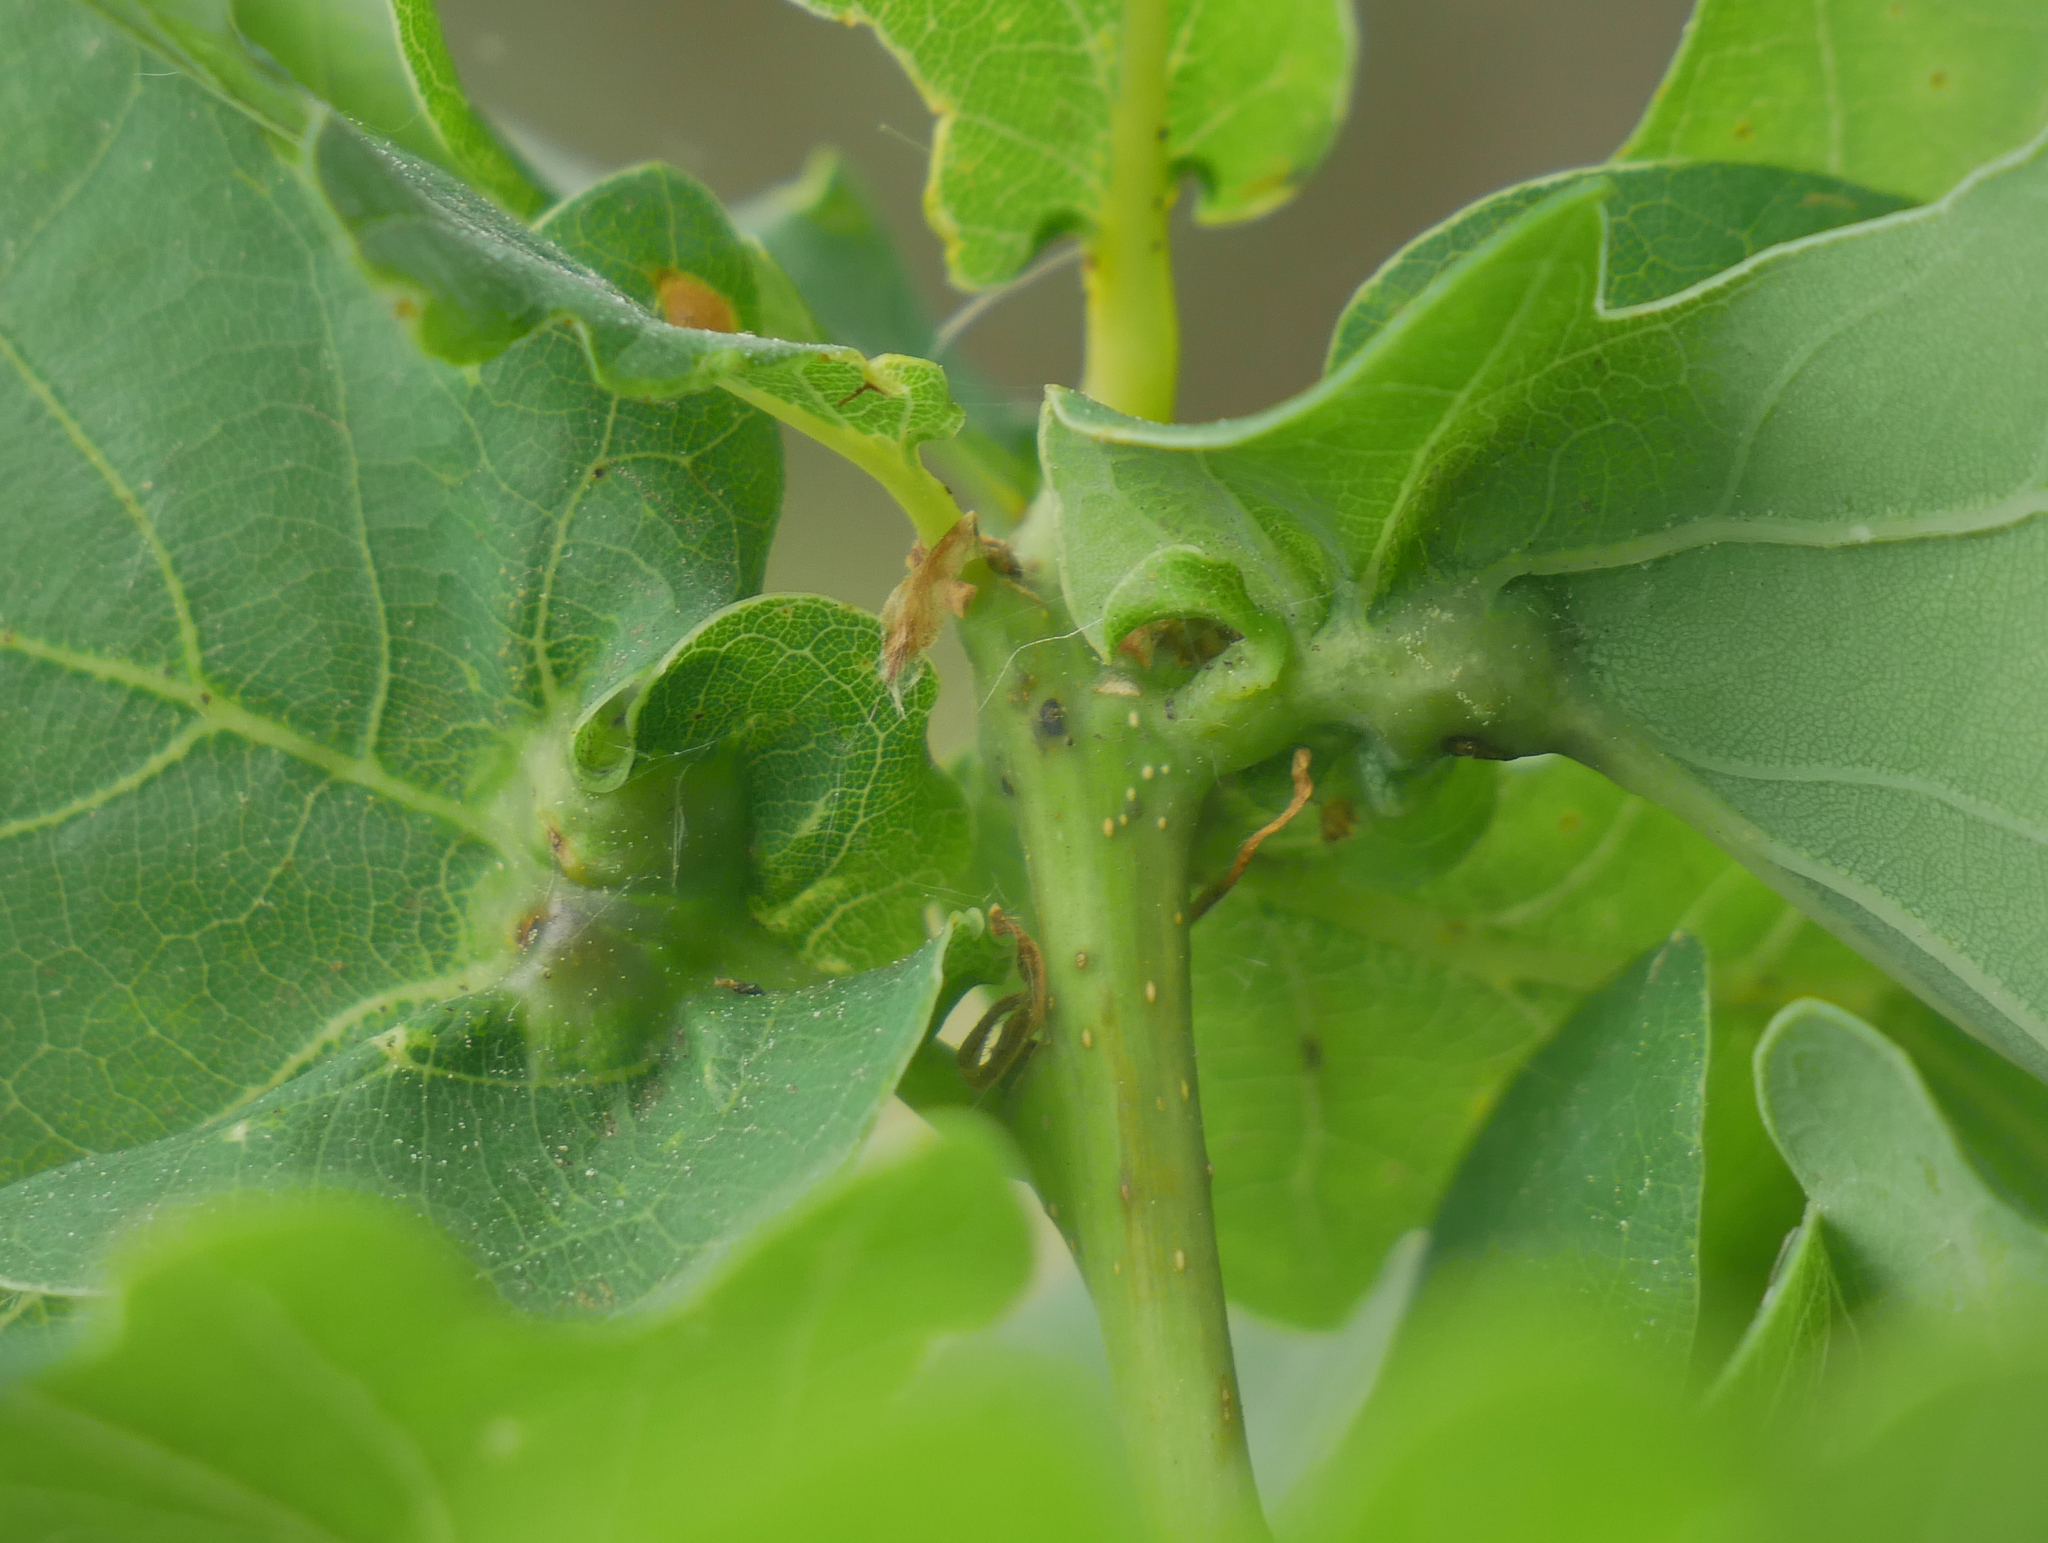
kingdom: Animalia
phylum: Arthropoda
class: Insecta
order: Hymenoptera
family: Cynipidae
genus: Andricus
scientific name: Andricus curvator
